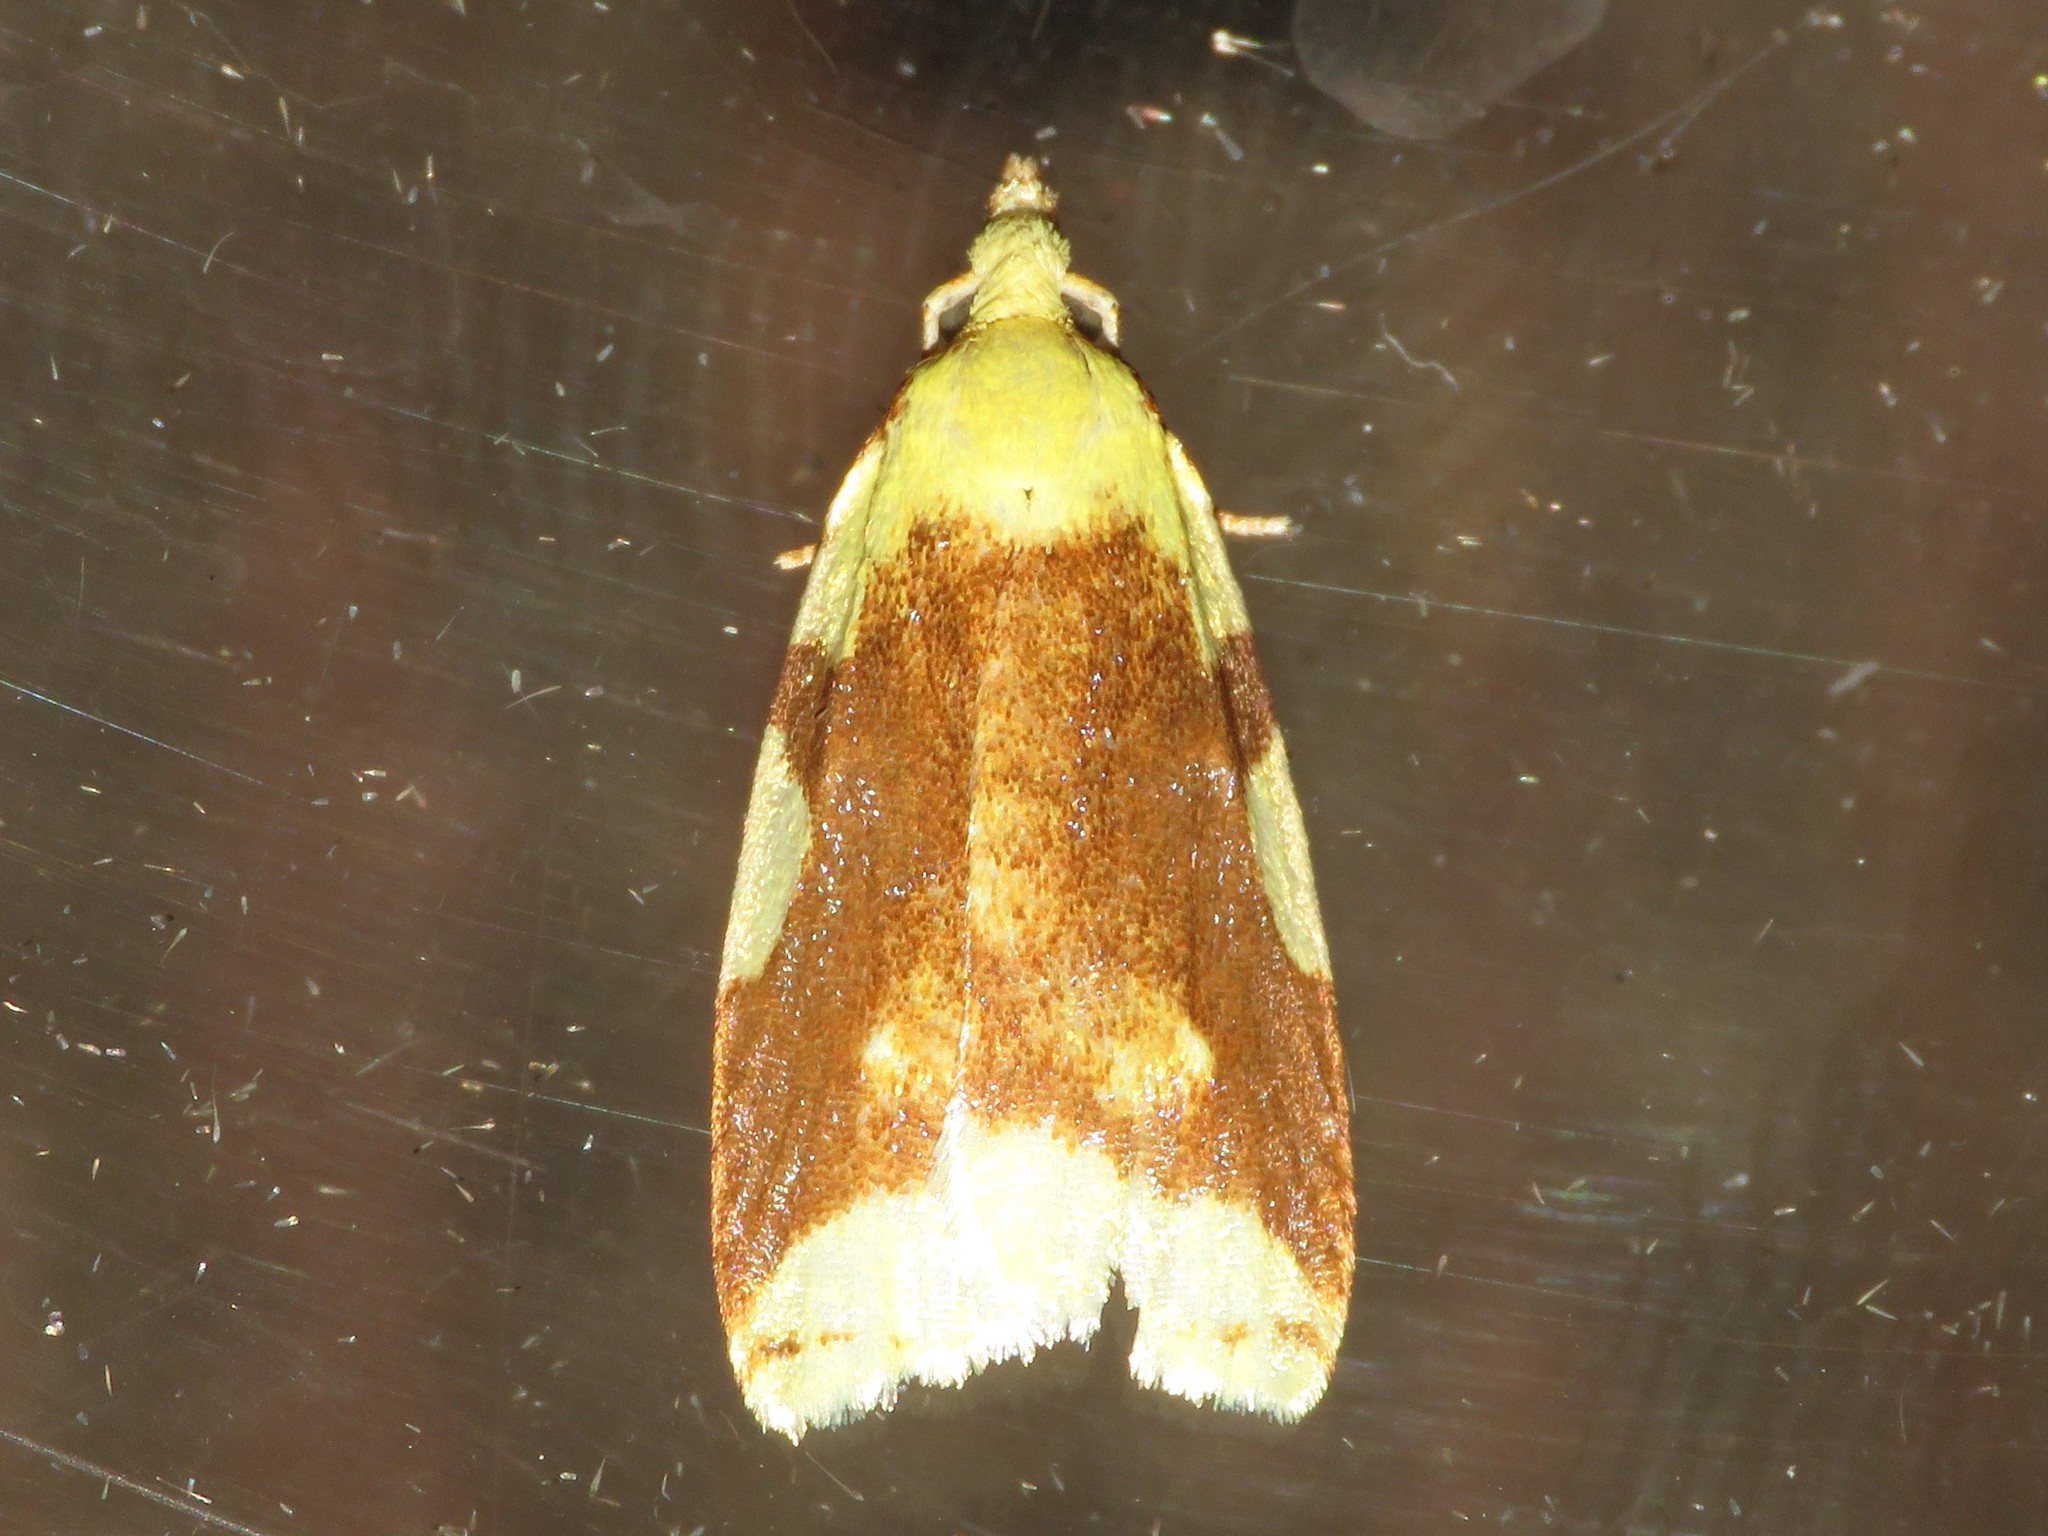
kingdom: Animalia
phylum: Arthropoda
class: Insecta
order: Lepidoptera
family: Tortricidae
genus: Cenopis
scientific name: Cenopis niveana
